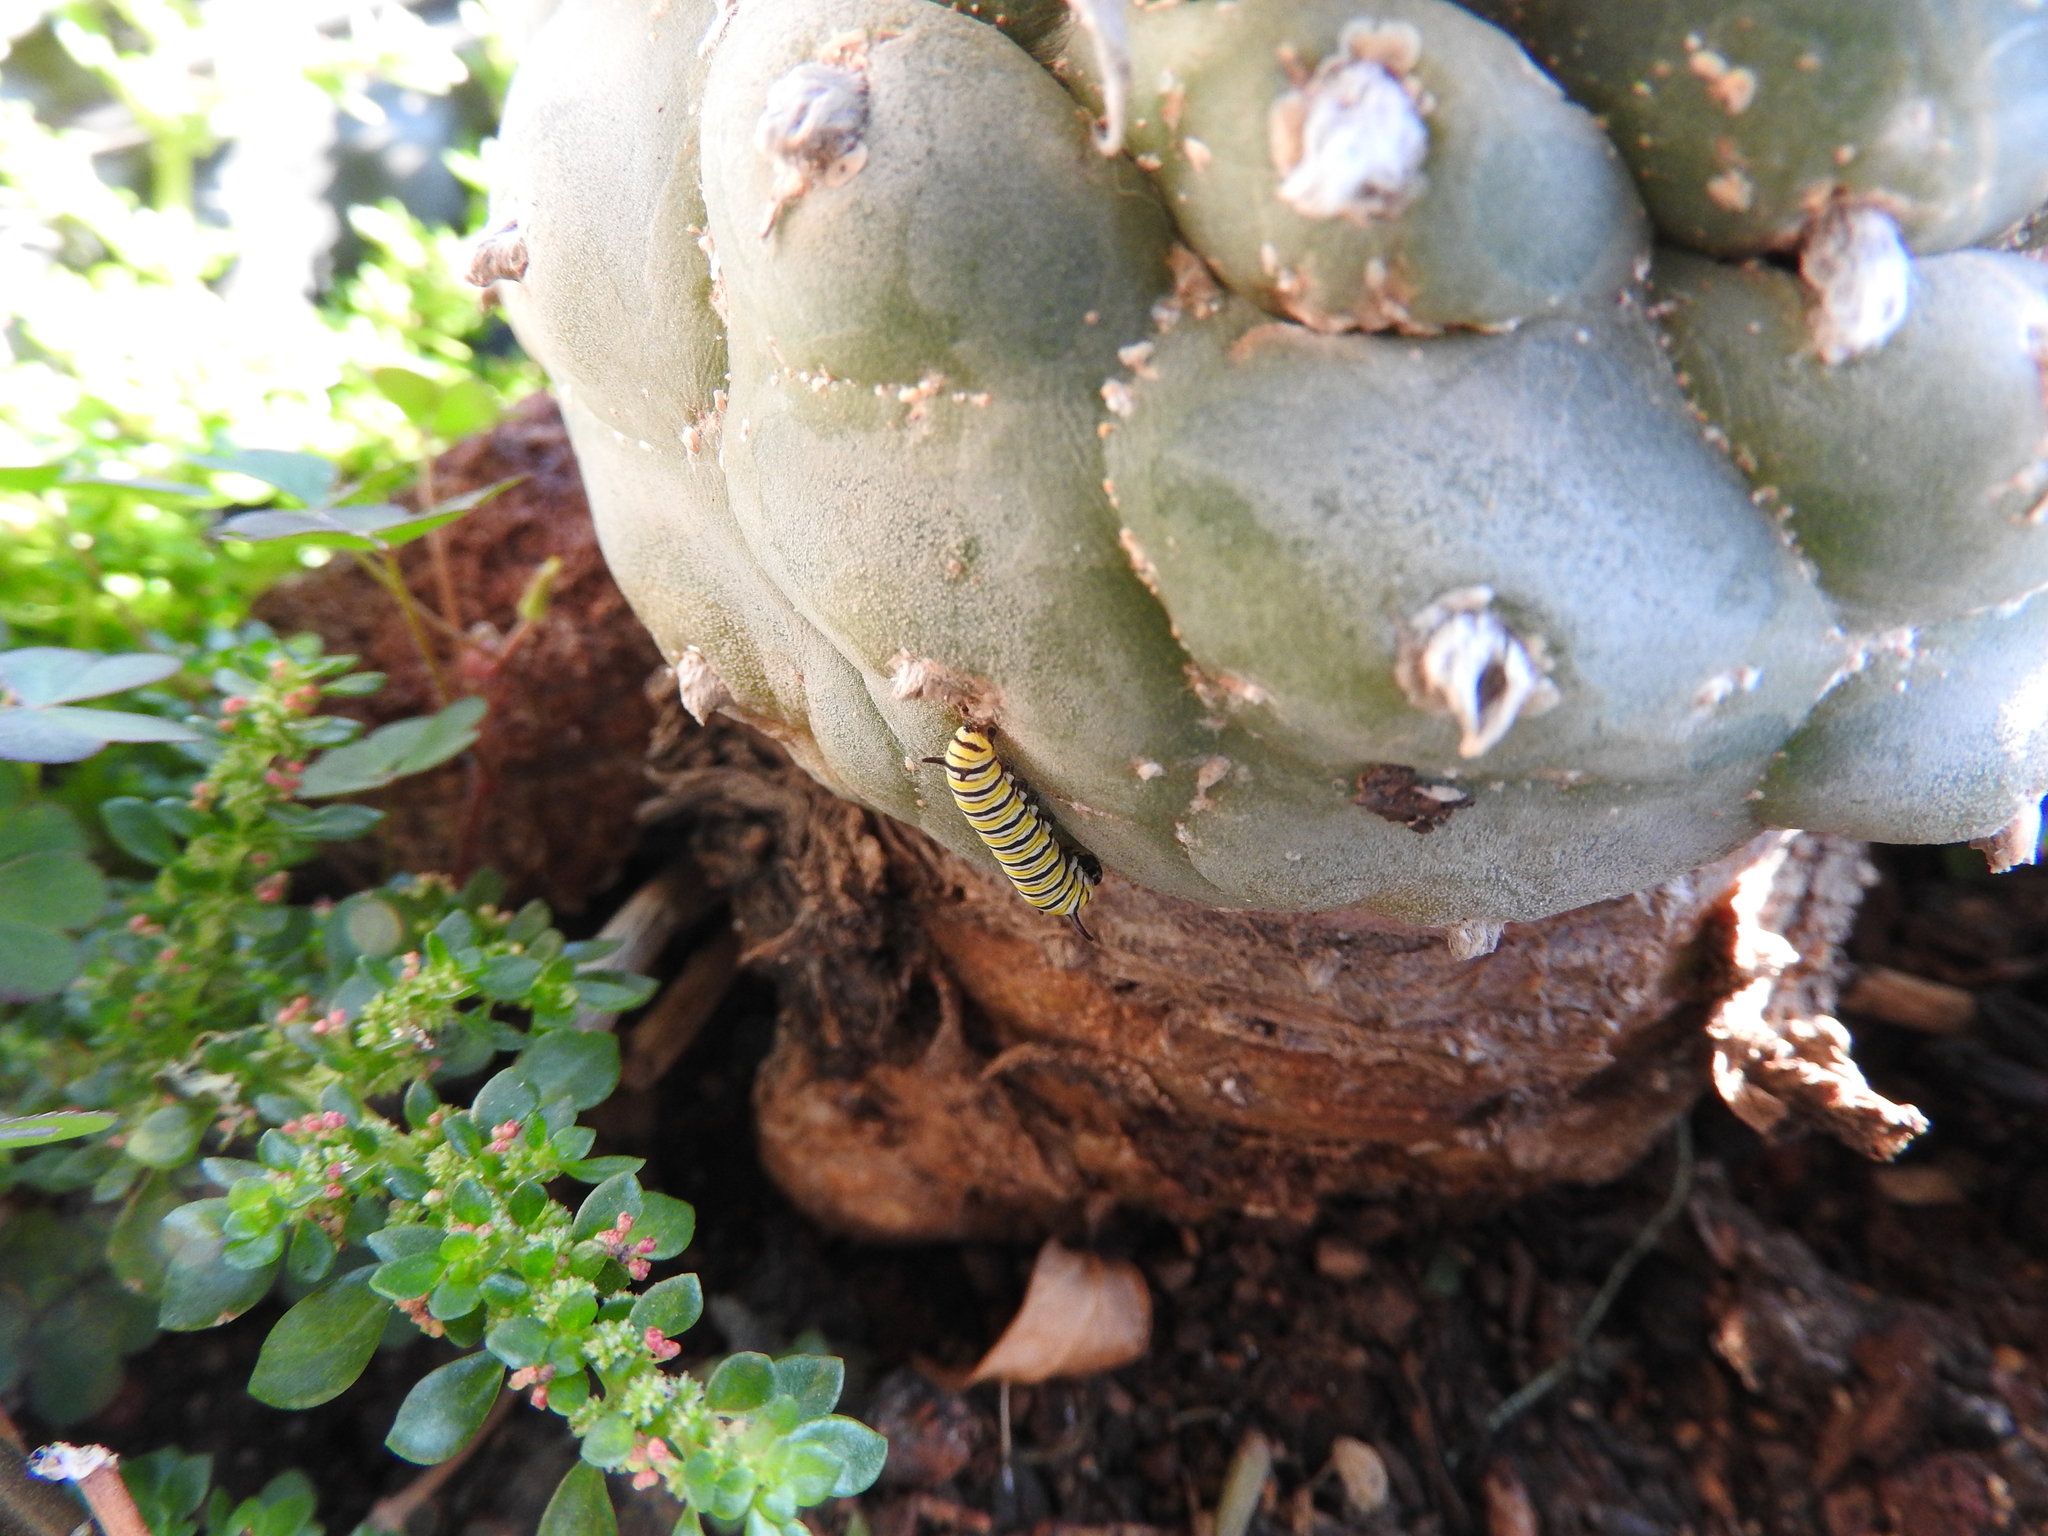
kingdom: Animalia
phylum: Arthropoda
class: Insecta
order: Lepidoptera
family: Nymphalidae
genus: Danaus
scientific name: Danaus plexippus
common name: Monarch
